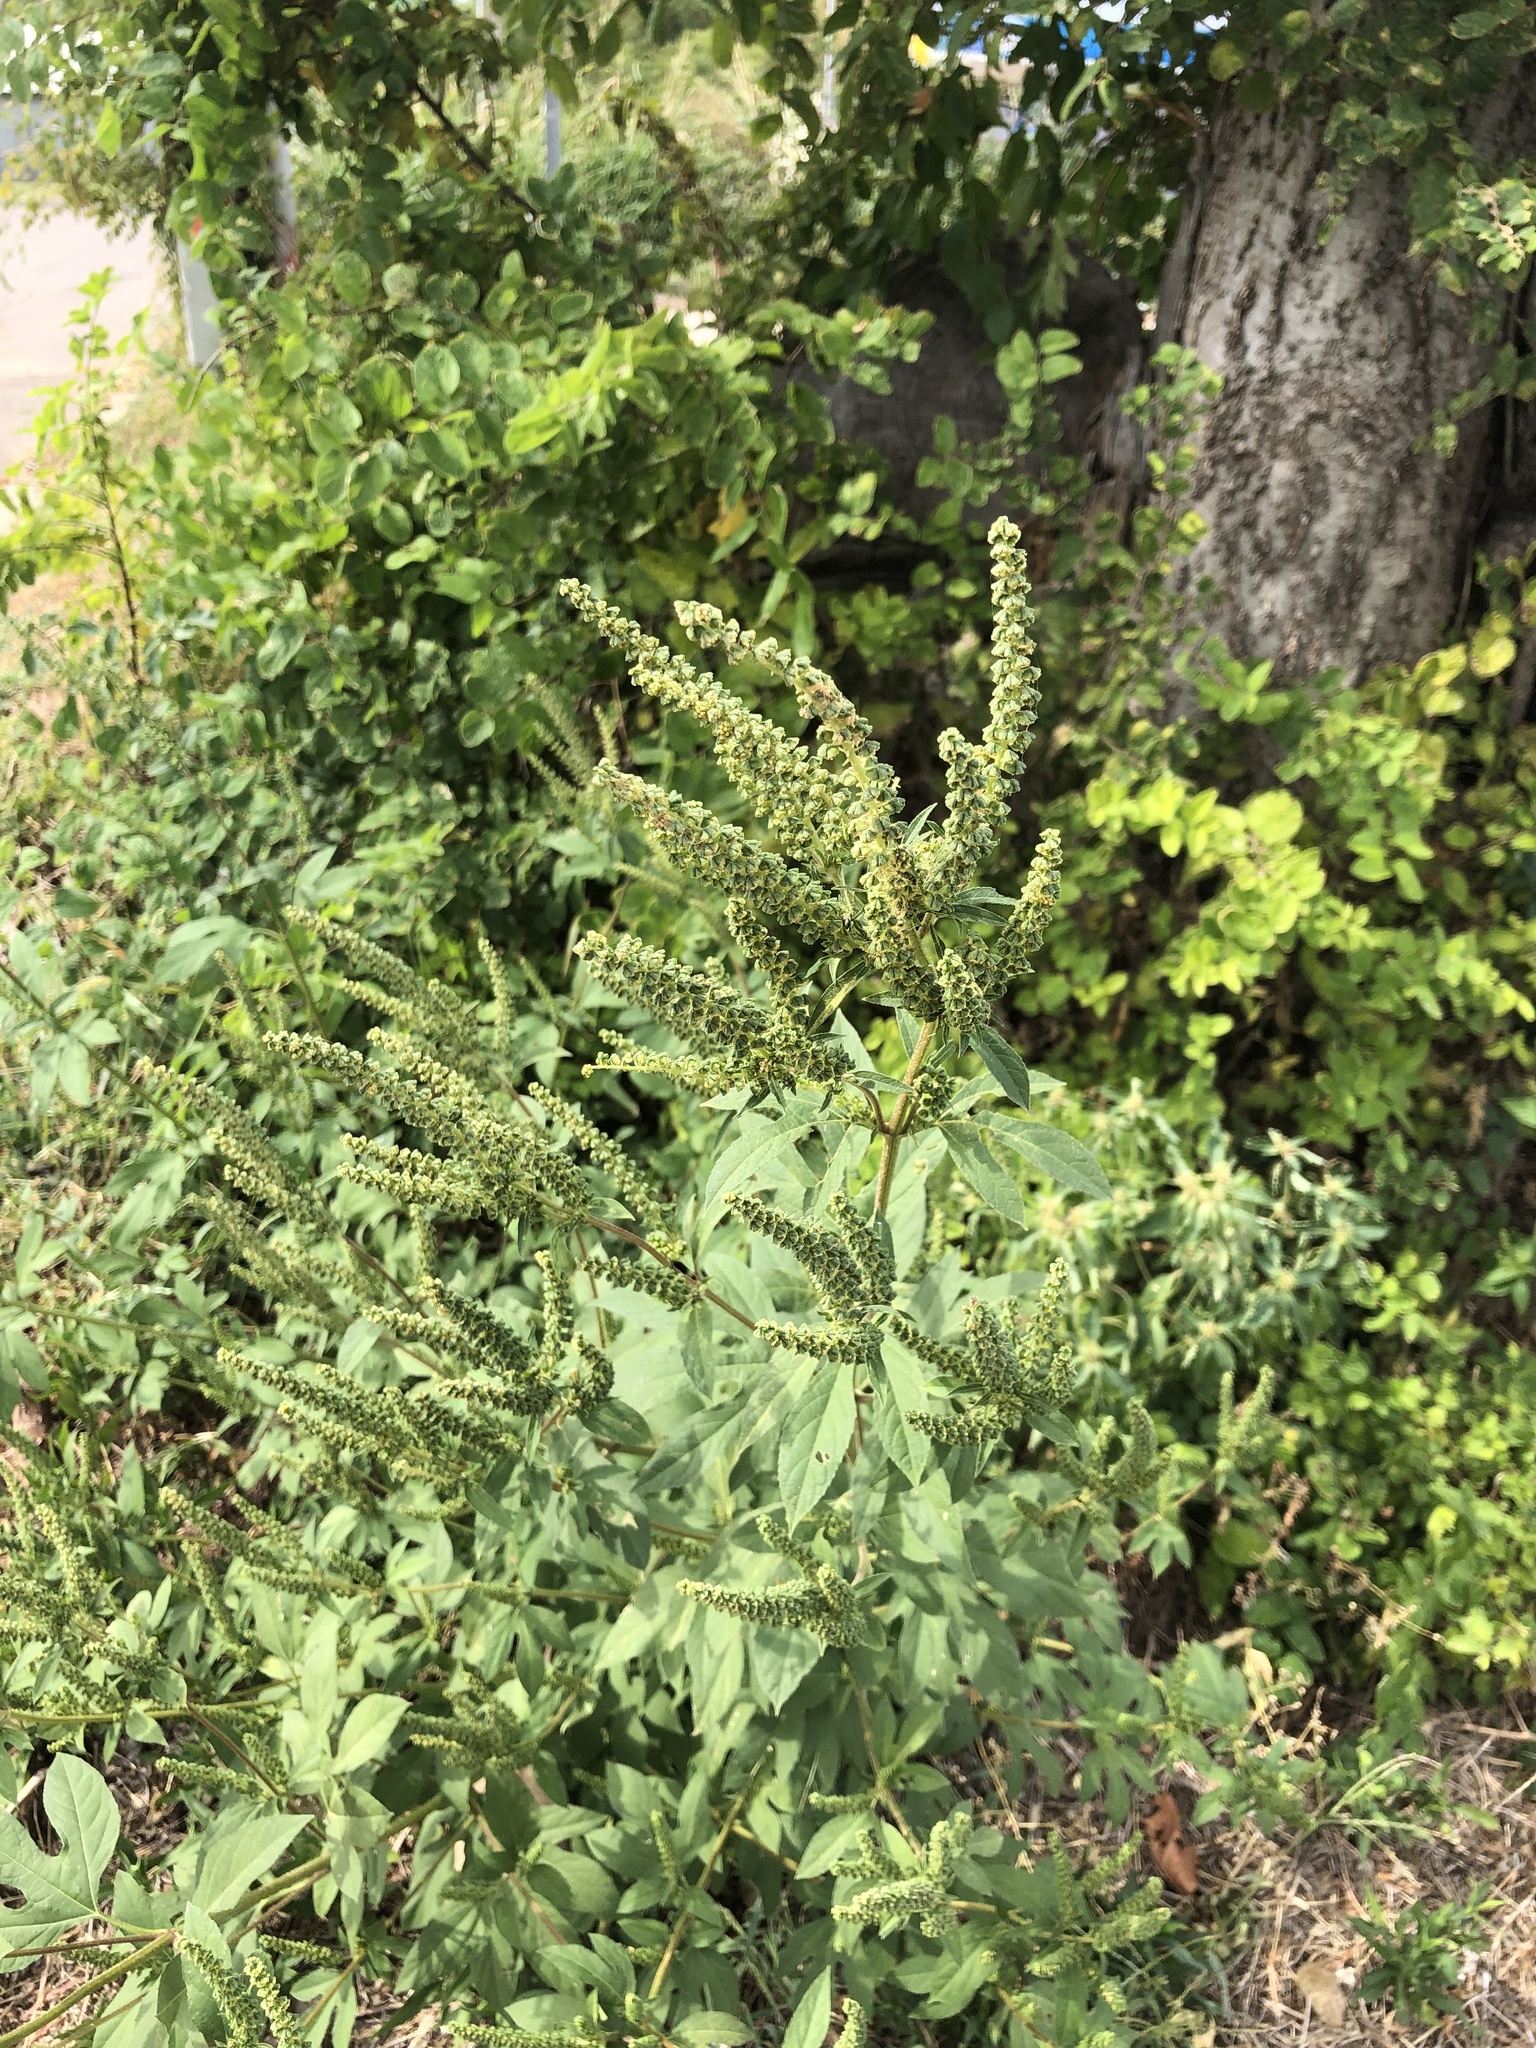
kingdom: Plantae
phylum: Tracheophyta
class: Magnoliopsida
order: Asterales
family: Asteraceae
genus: Ambrosia
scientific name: Ambrosia trifida
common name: Giant ragweed
